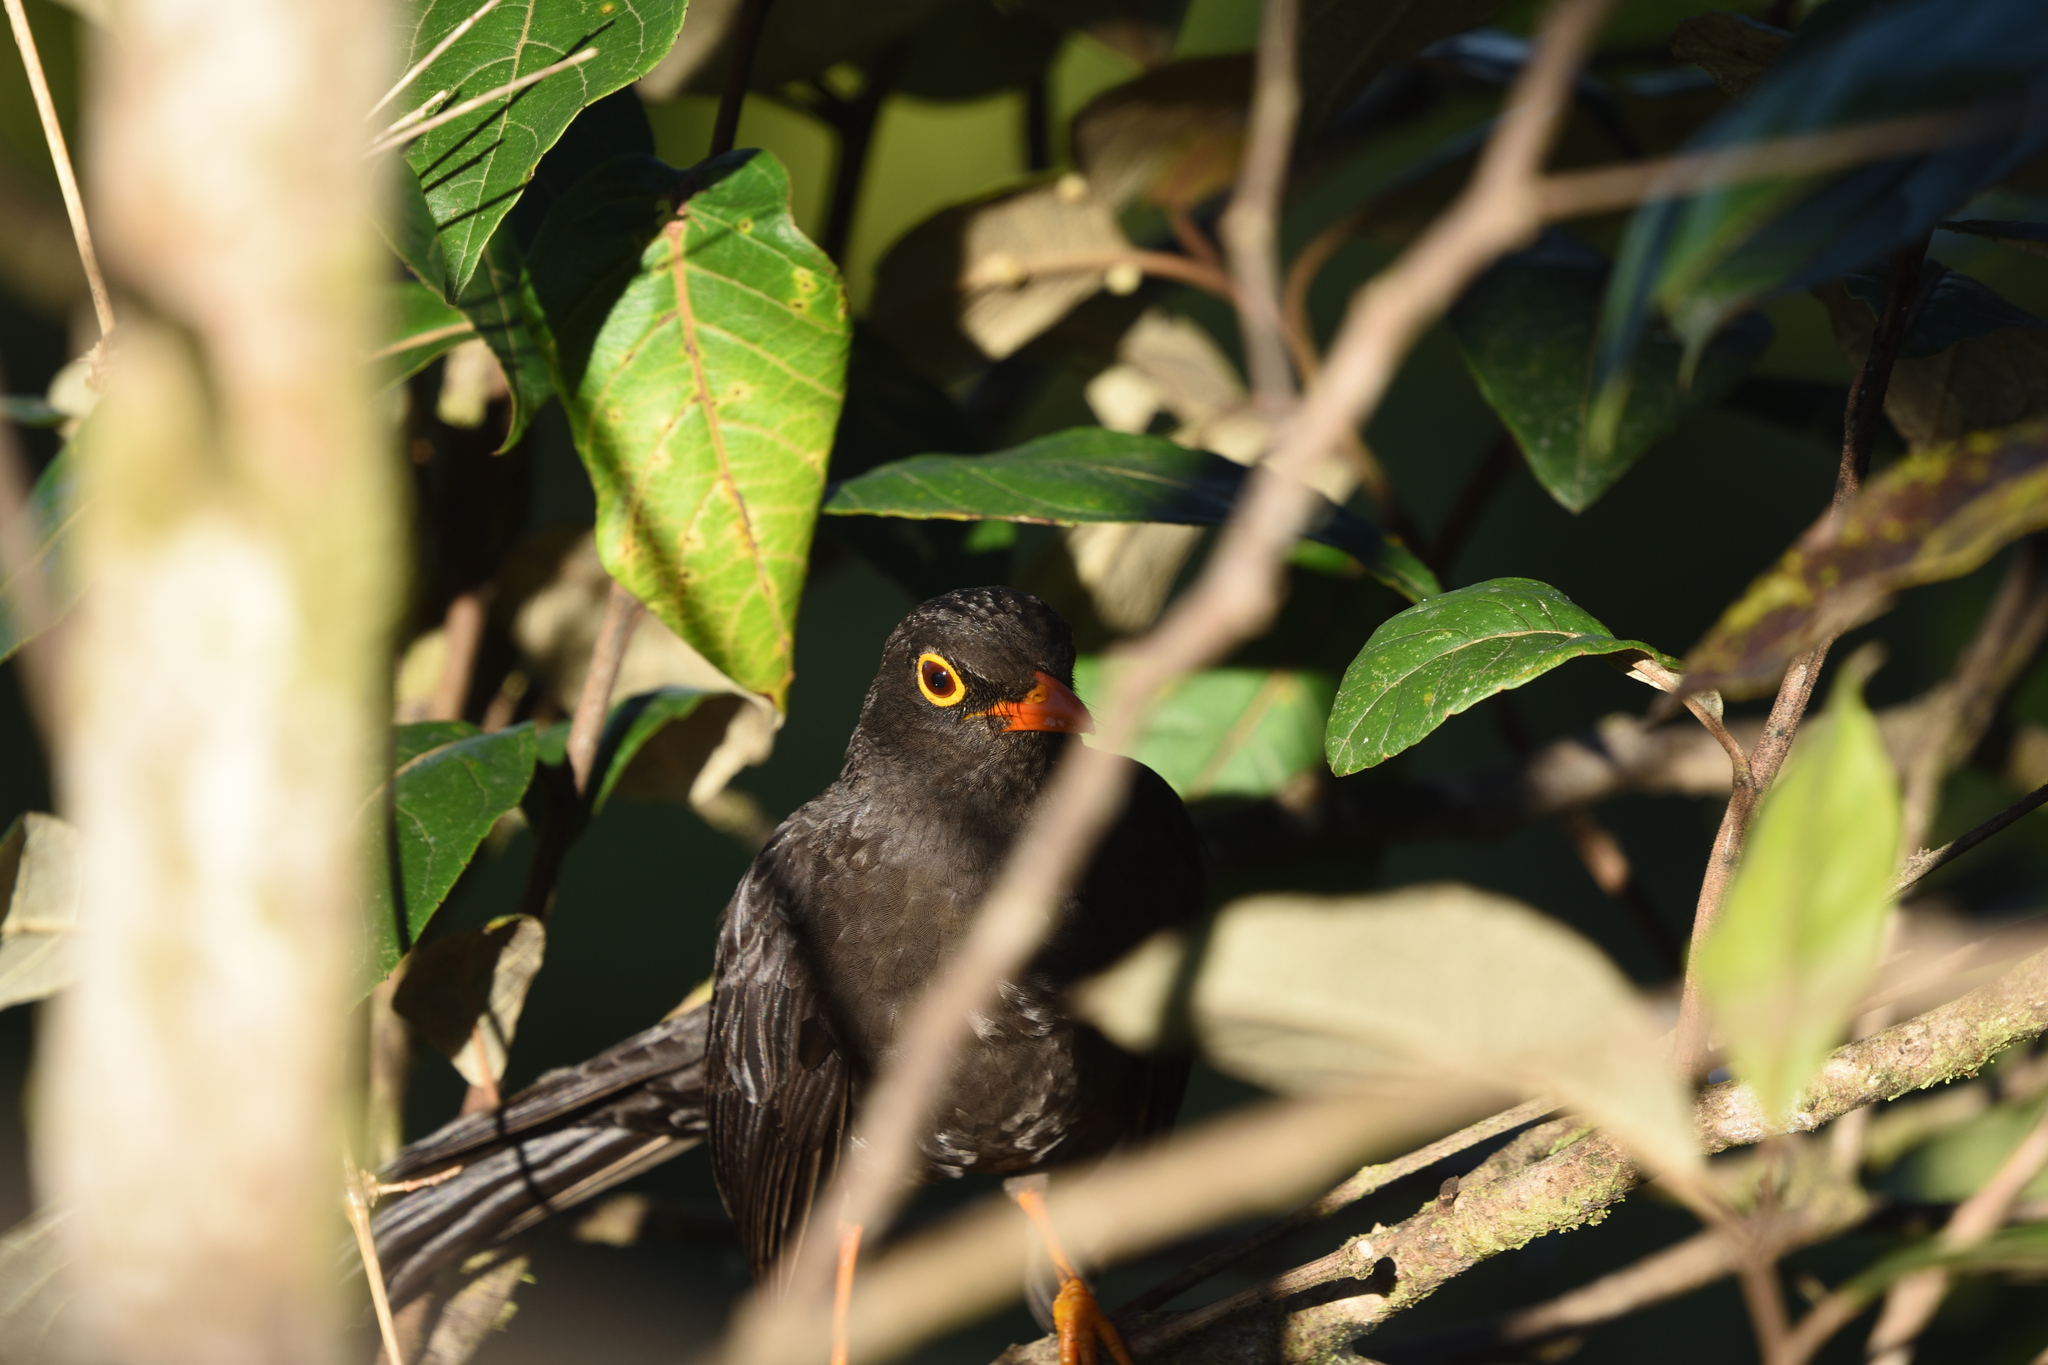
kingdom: Animalia
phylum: Chordata
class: Aves
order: Passeriformes
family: Turdidae
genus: Turdus
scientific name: Turdus fuscater
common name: Great thrush
